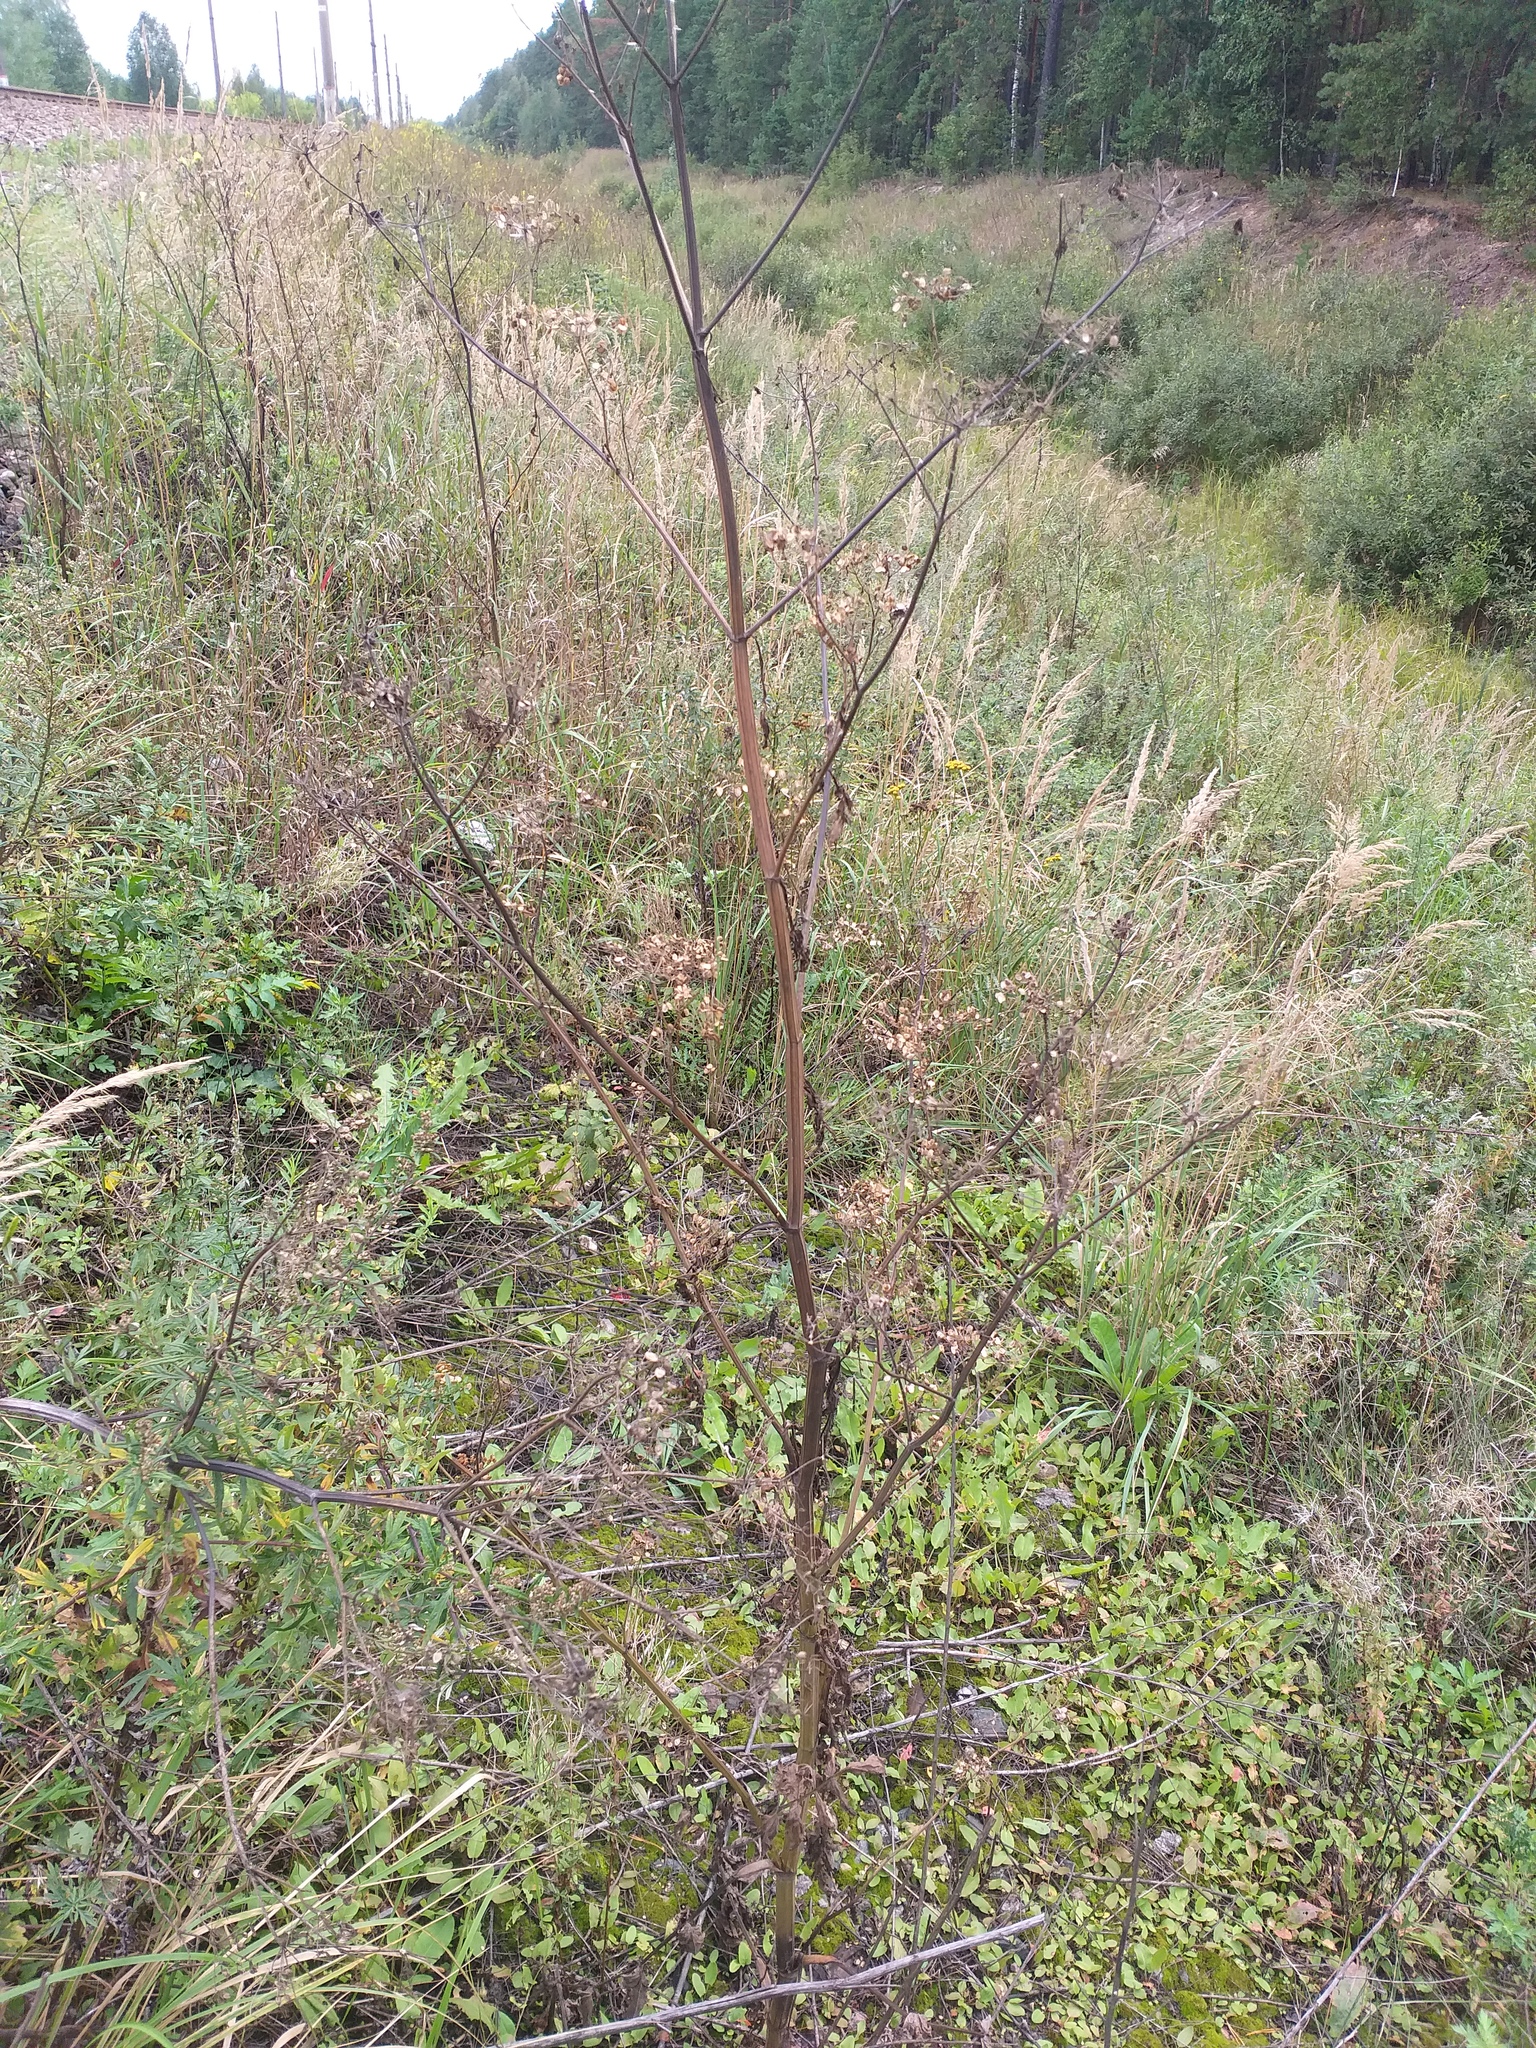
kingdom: Plantae
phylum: Tracheophyta
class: Magnoliopsida
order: Apiales
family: Apiaceae
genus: Pastinaca
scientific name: Pastinaca sativa
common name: Wild parsnip
